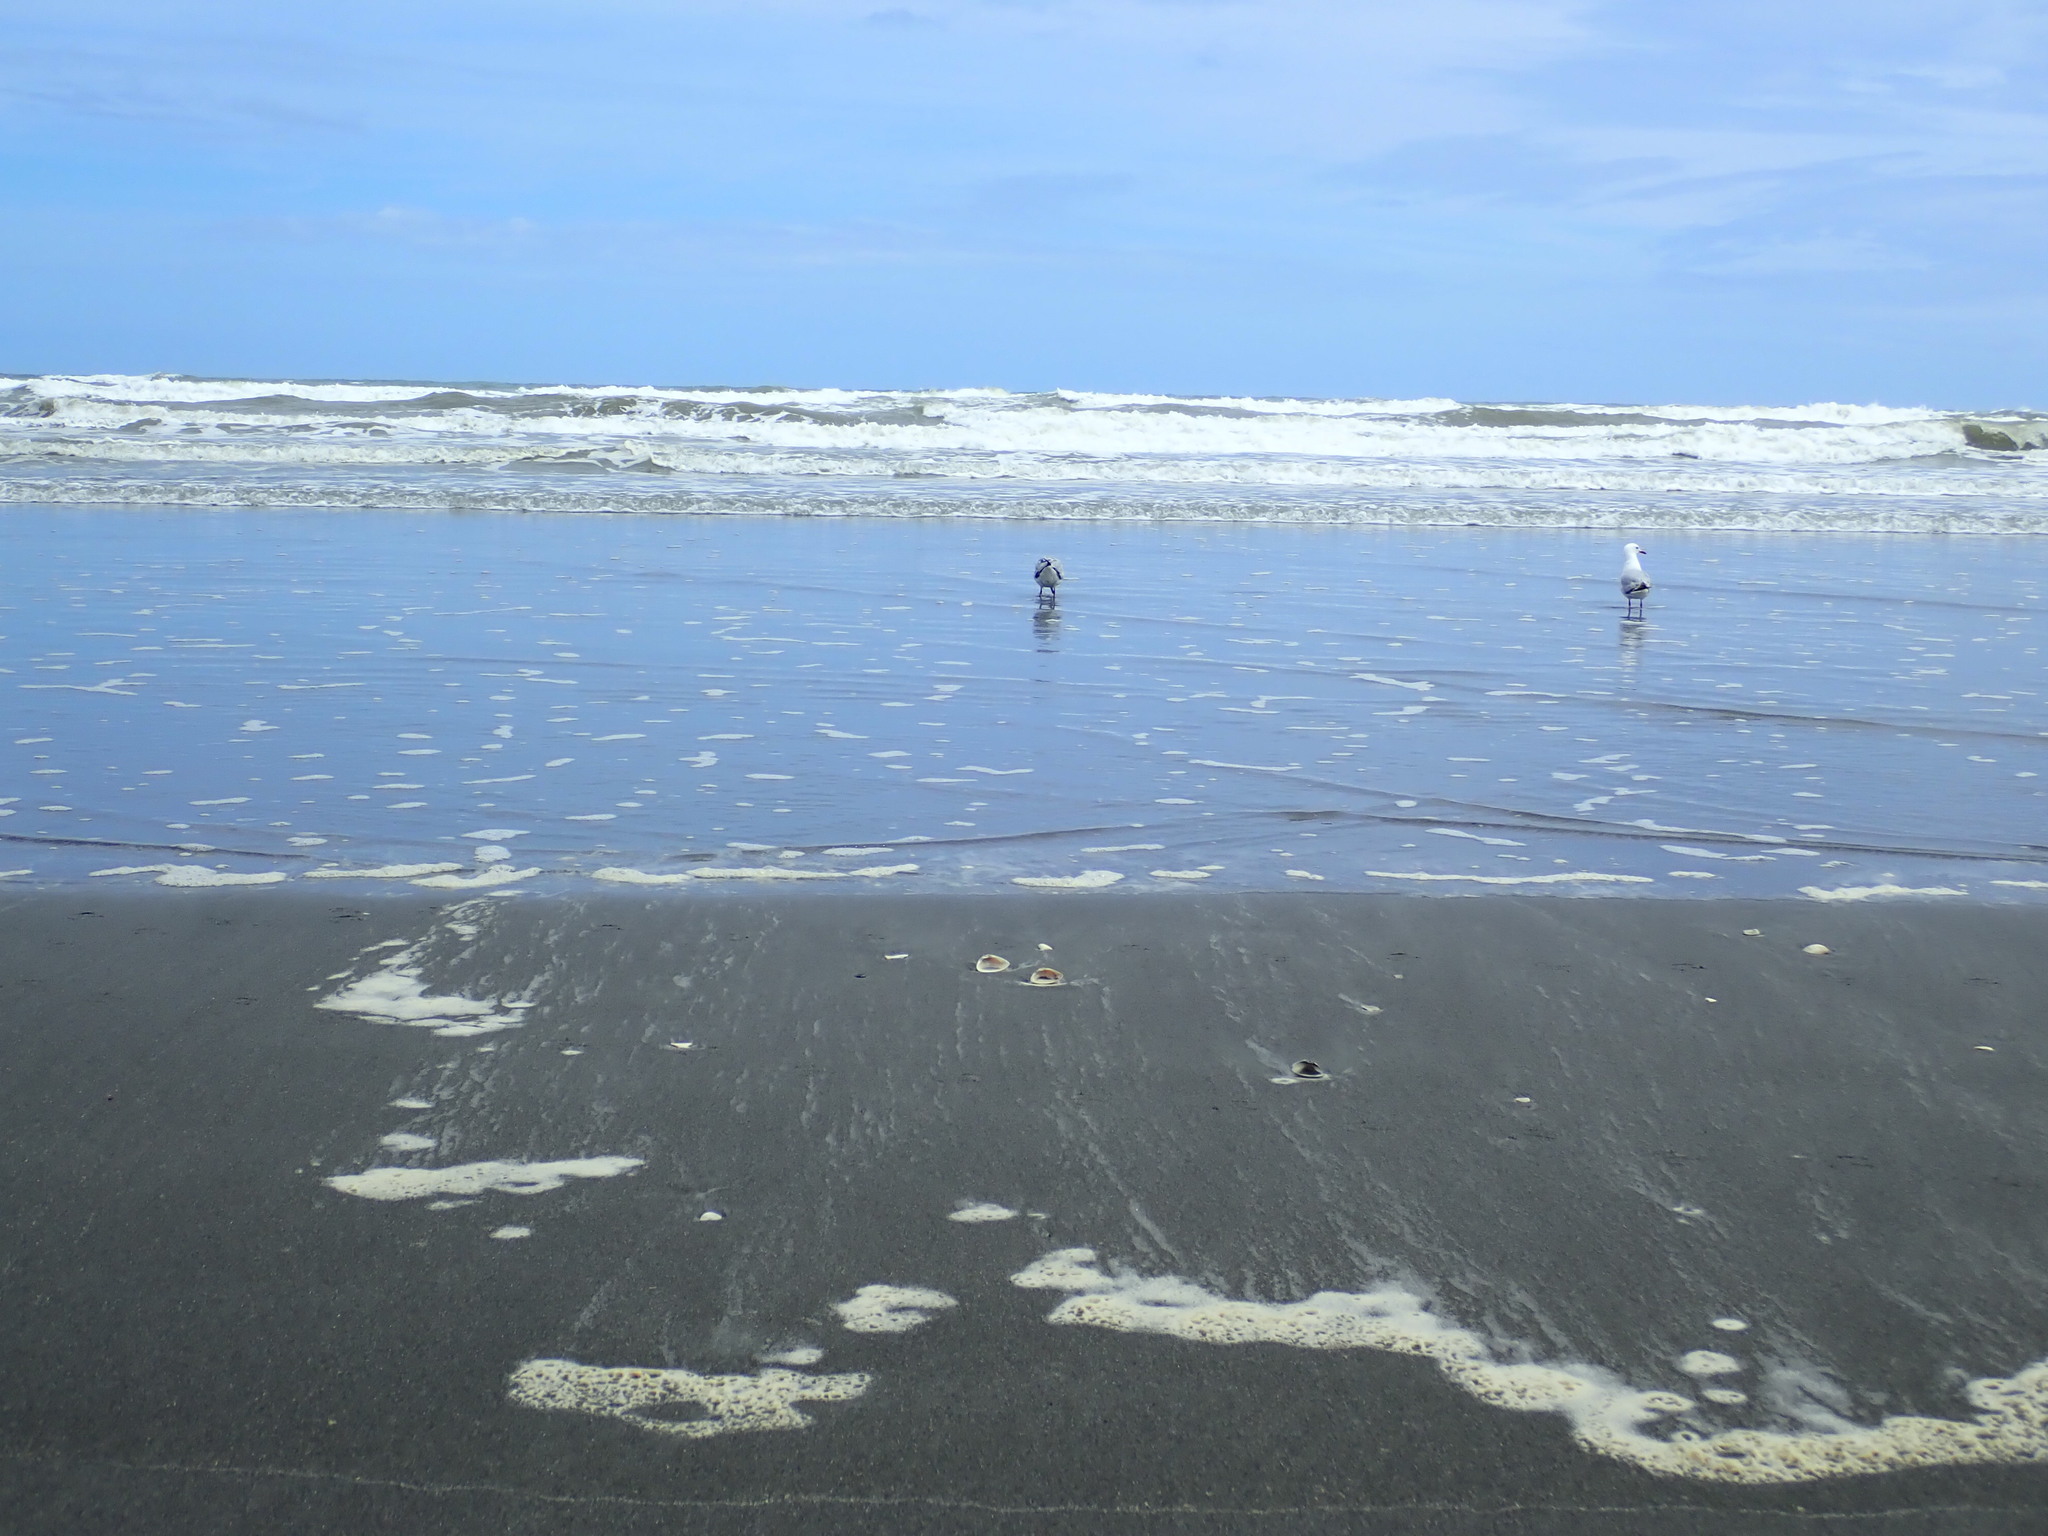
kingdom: Animalia
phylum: Chordata
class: Aves
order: Charadriiformes
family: Laridae
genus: Chroicocephalus
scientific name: Chroicocephalus bulleri
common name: Black-billed gull
